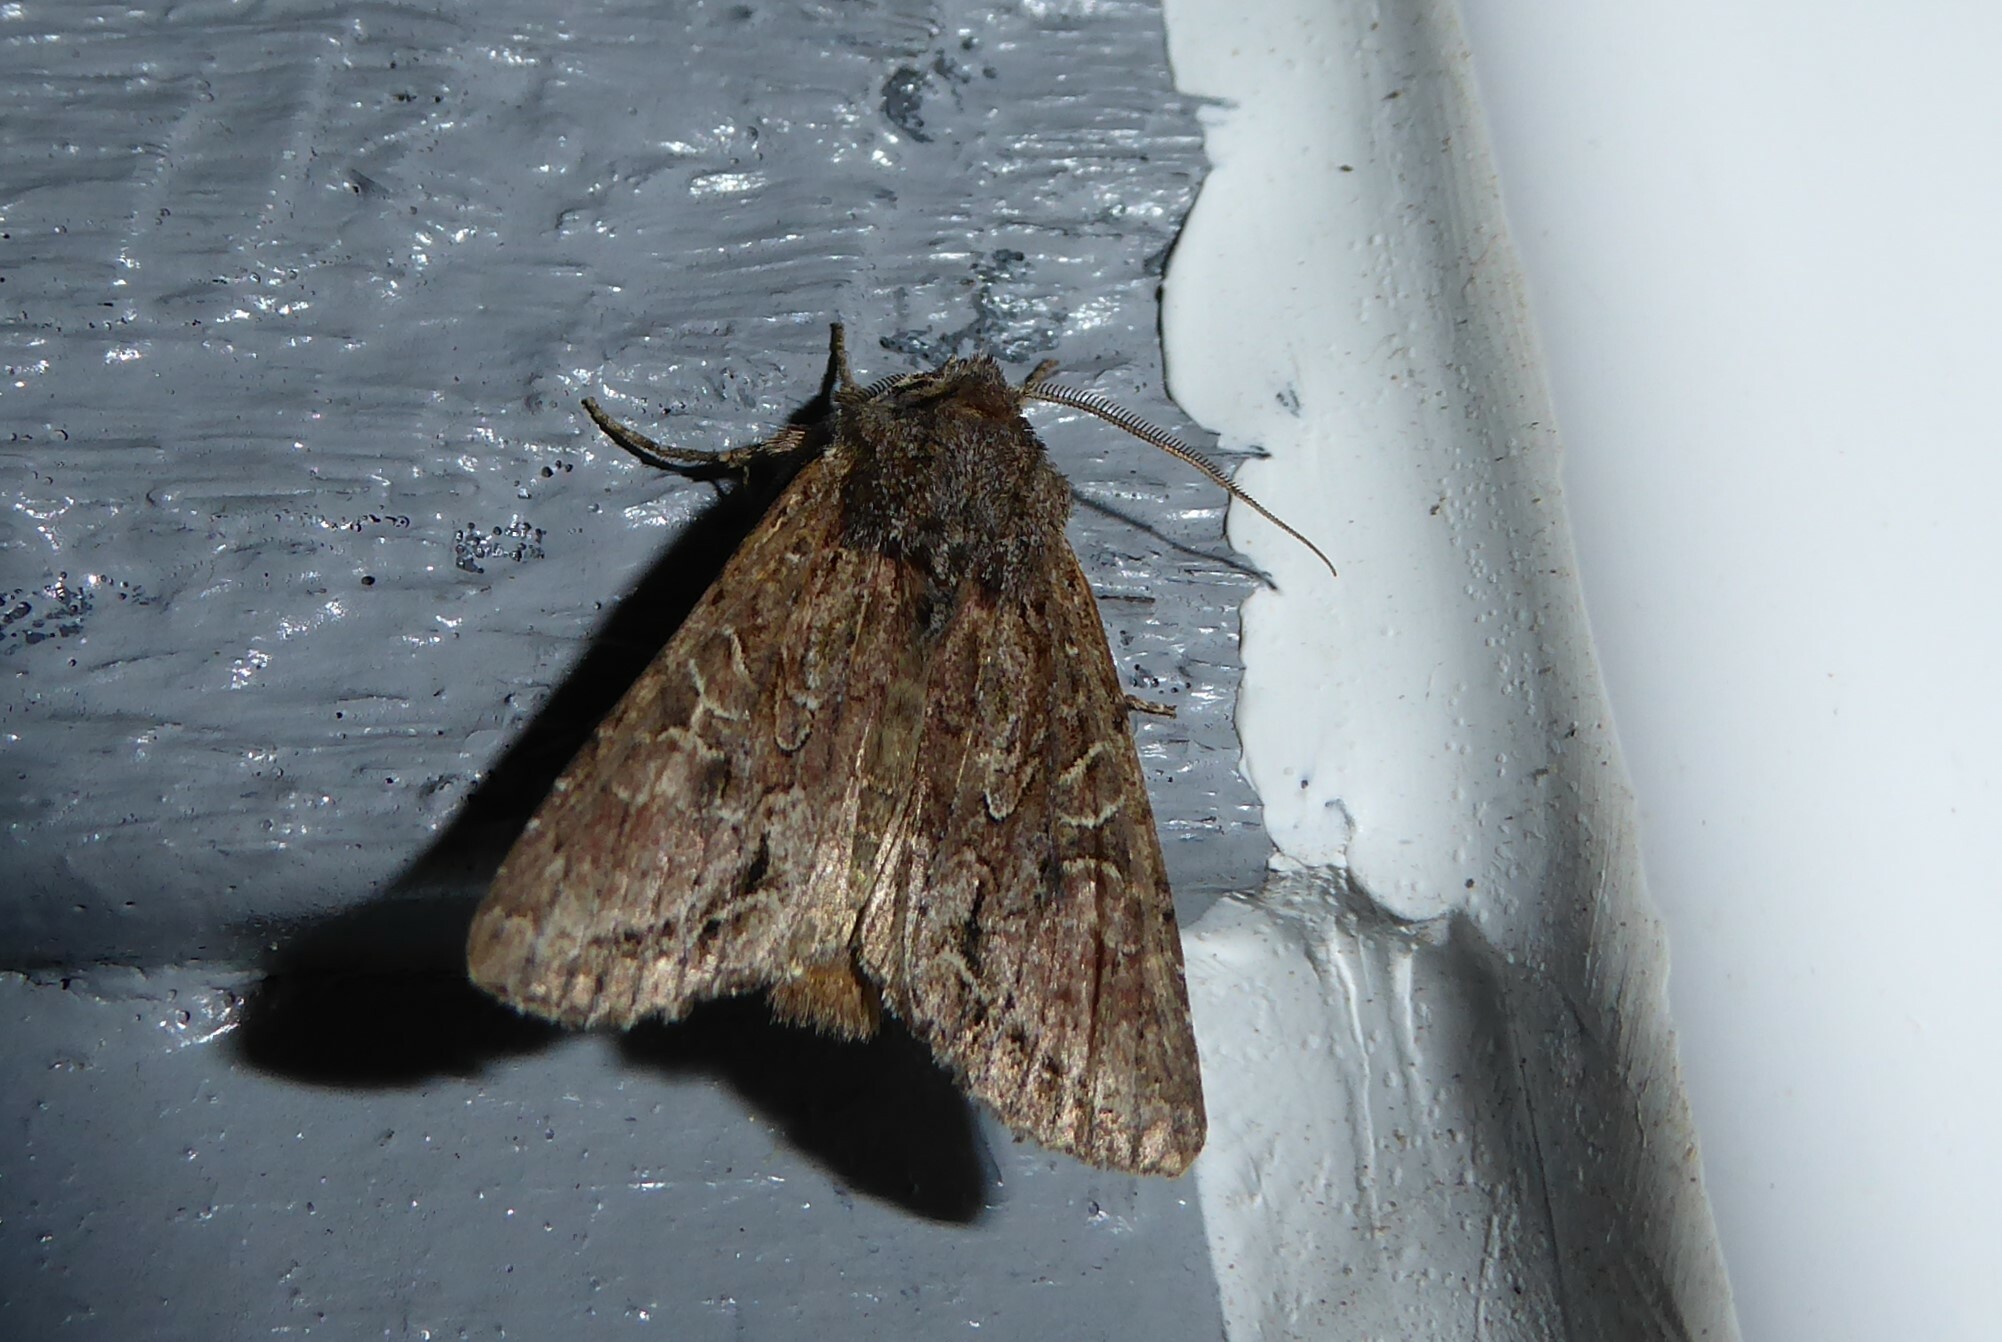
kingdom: Animalia
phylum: Arthropoda
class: Insecta
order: Lepidoptera
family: Noctuidae
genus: Ichneutica
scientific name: Ichneutica mutans
